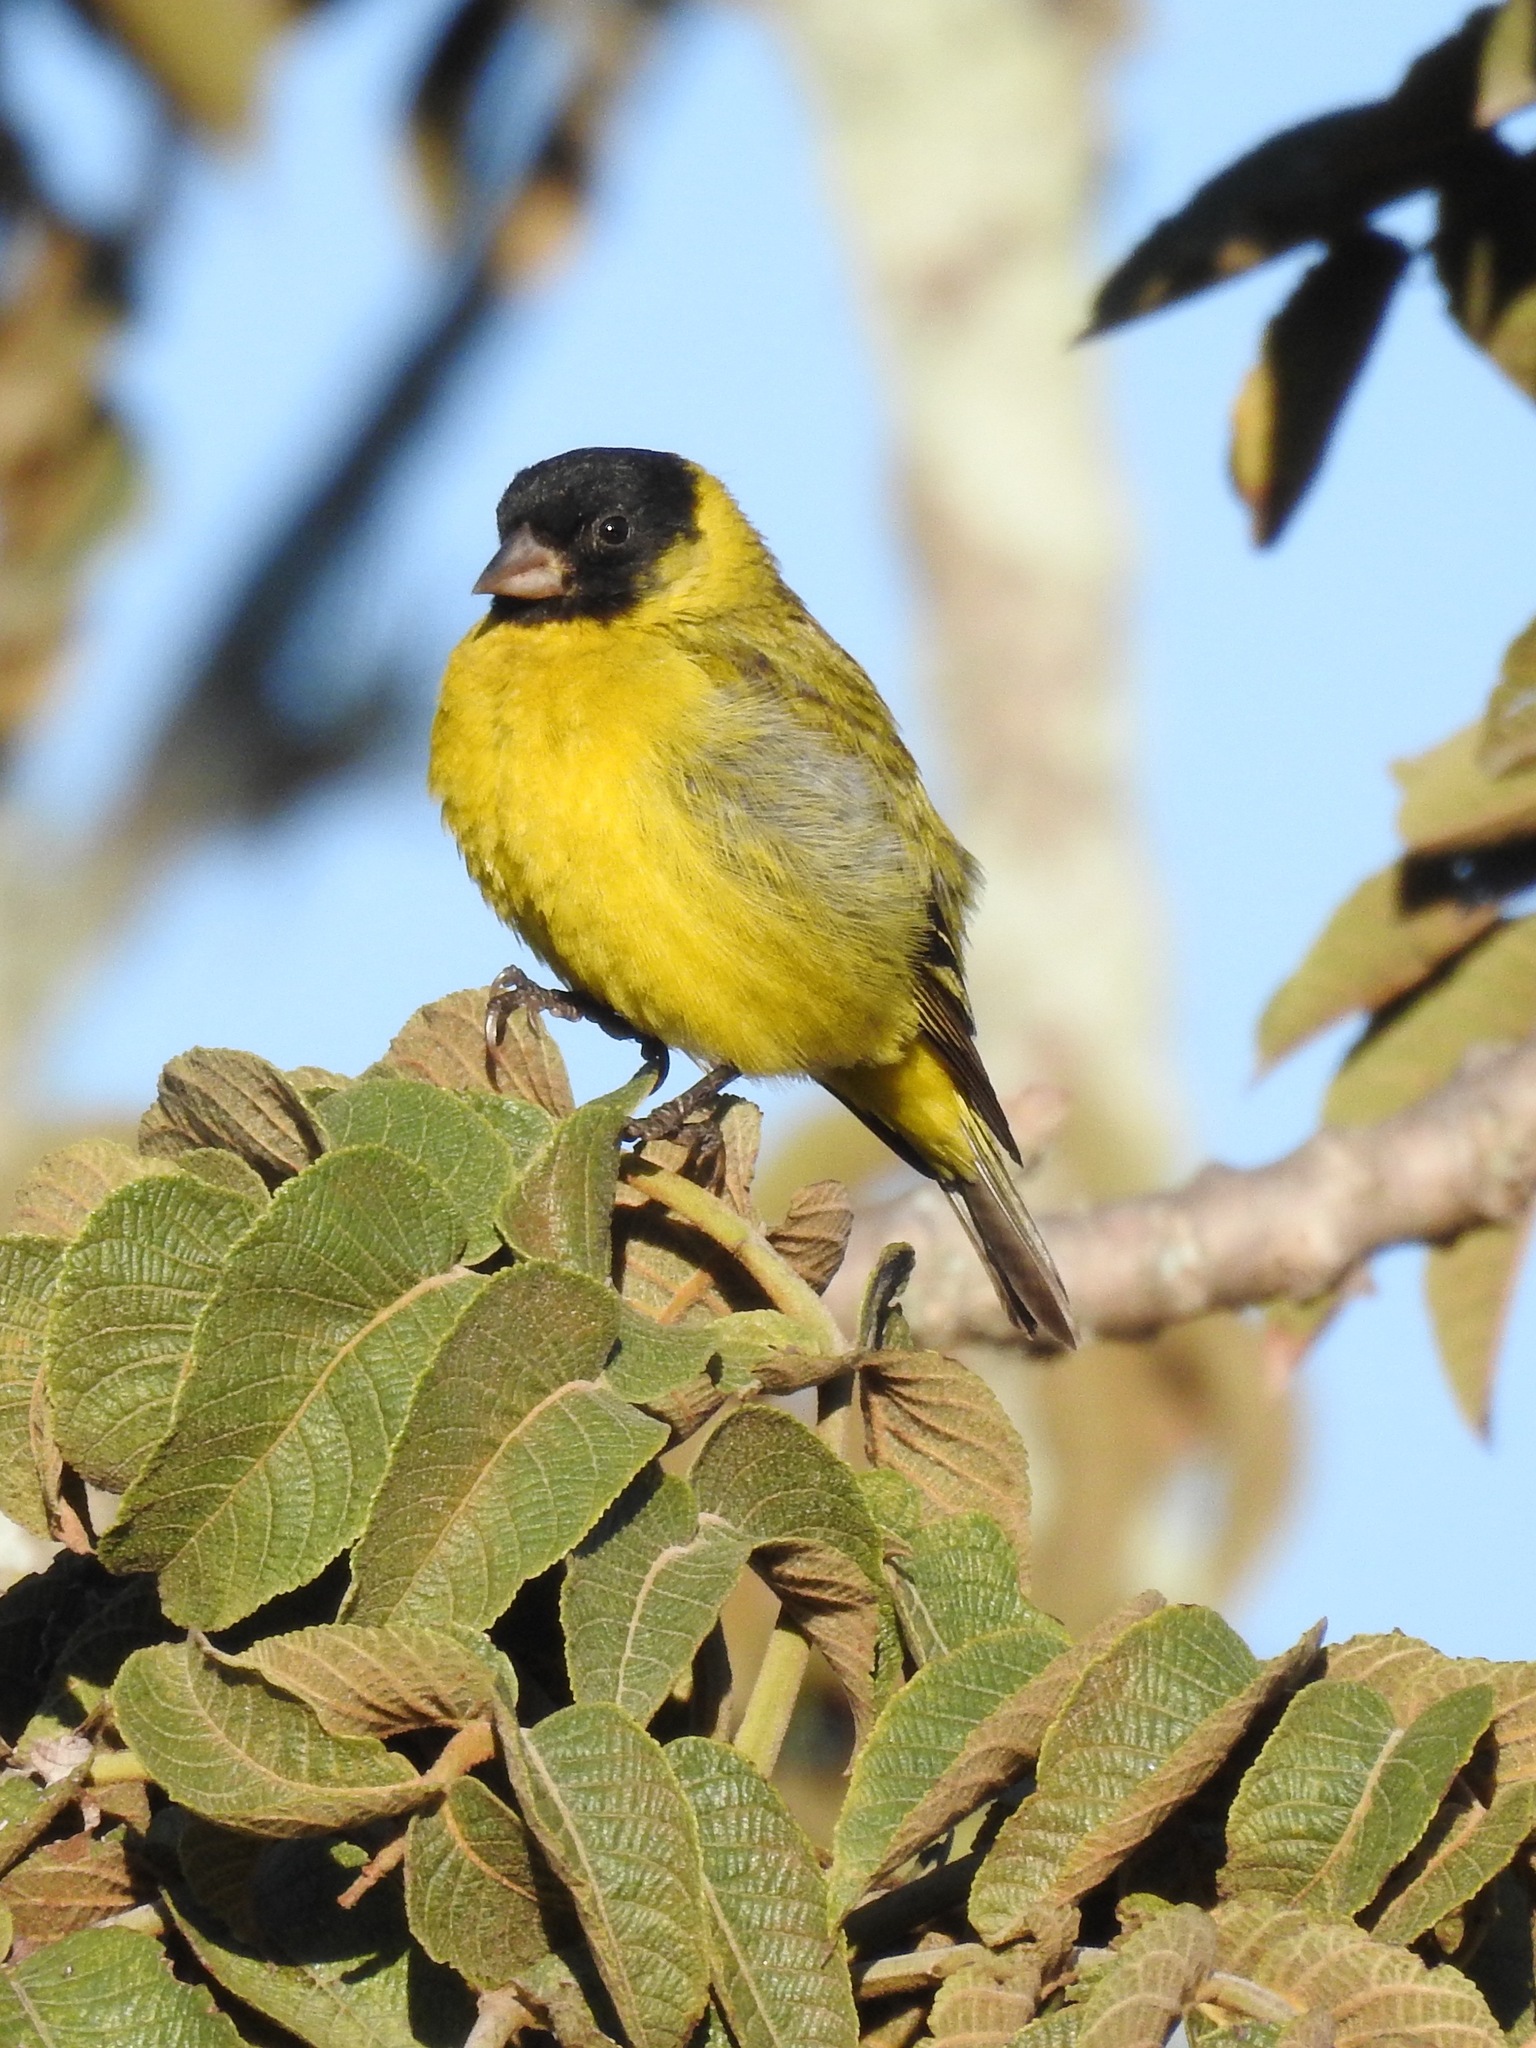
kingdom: Animalia
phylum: Chordata
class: Aves
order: Passeriformes
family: Fringillidae
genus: Spinus
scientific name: Spinus magellanicus
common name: Hooded siskin
